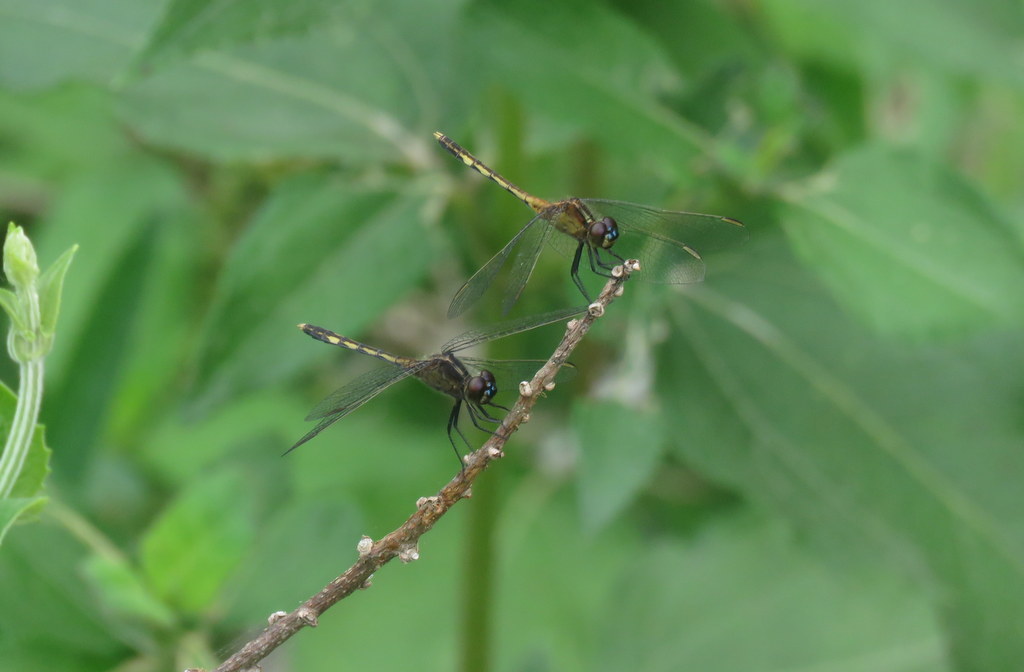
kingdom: Animalia
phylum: Arthropoda
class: Insecta
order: Odonata
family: Libellulidae
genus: Erythrodiplax
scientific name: Erythrodiplax nigricans
